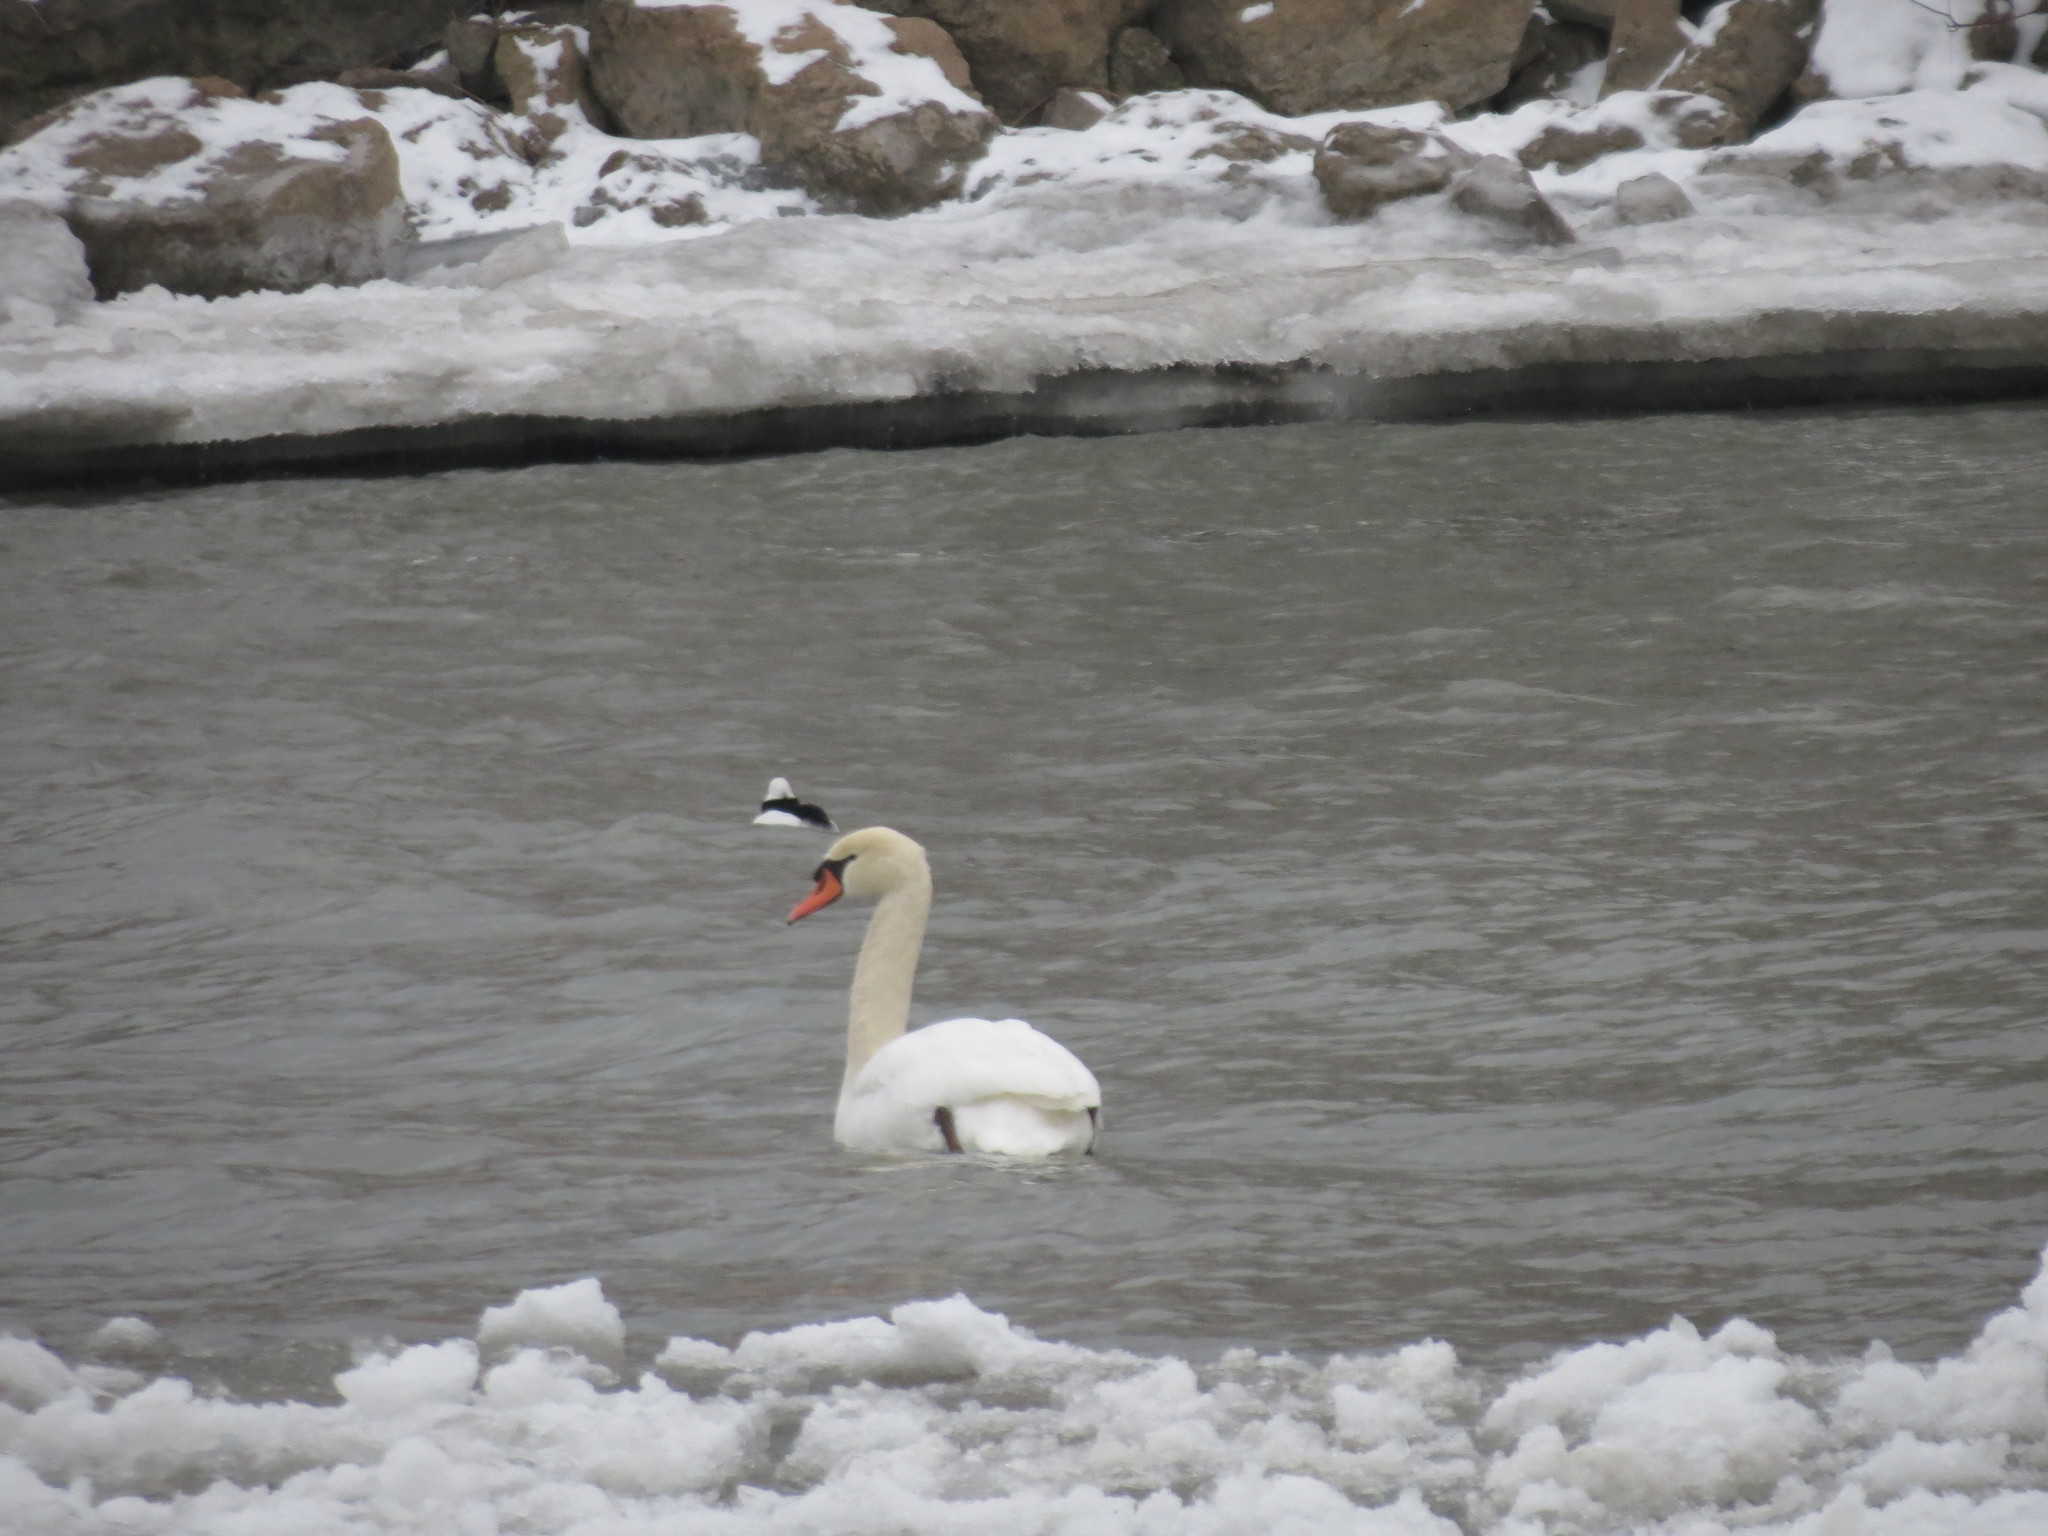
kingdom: Animalia
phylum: Chordata
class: Aves
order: Anseriformes
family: Anatidae
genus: Cygnus
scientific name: Cygnus olor
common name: Mute swan
